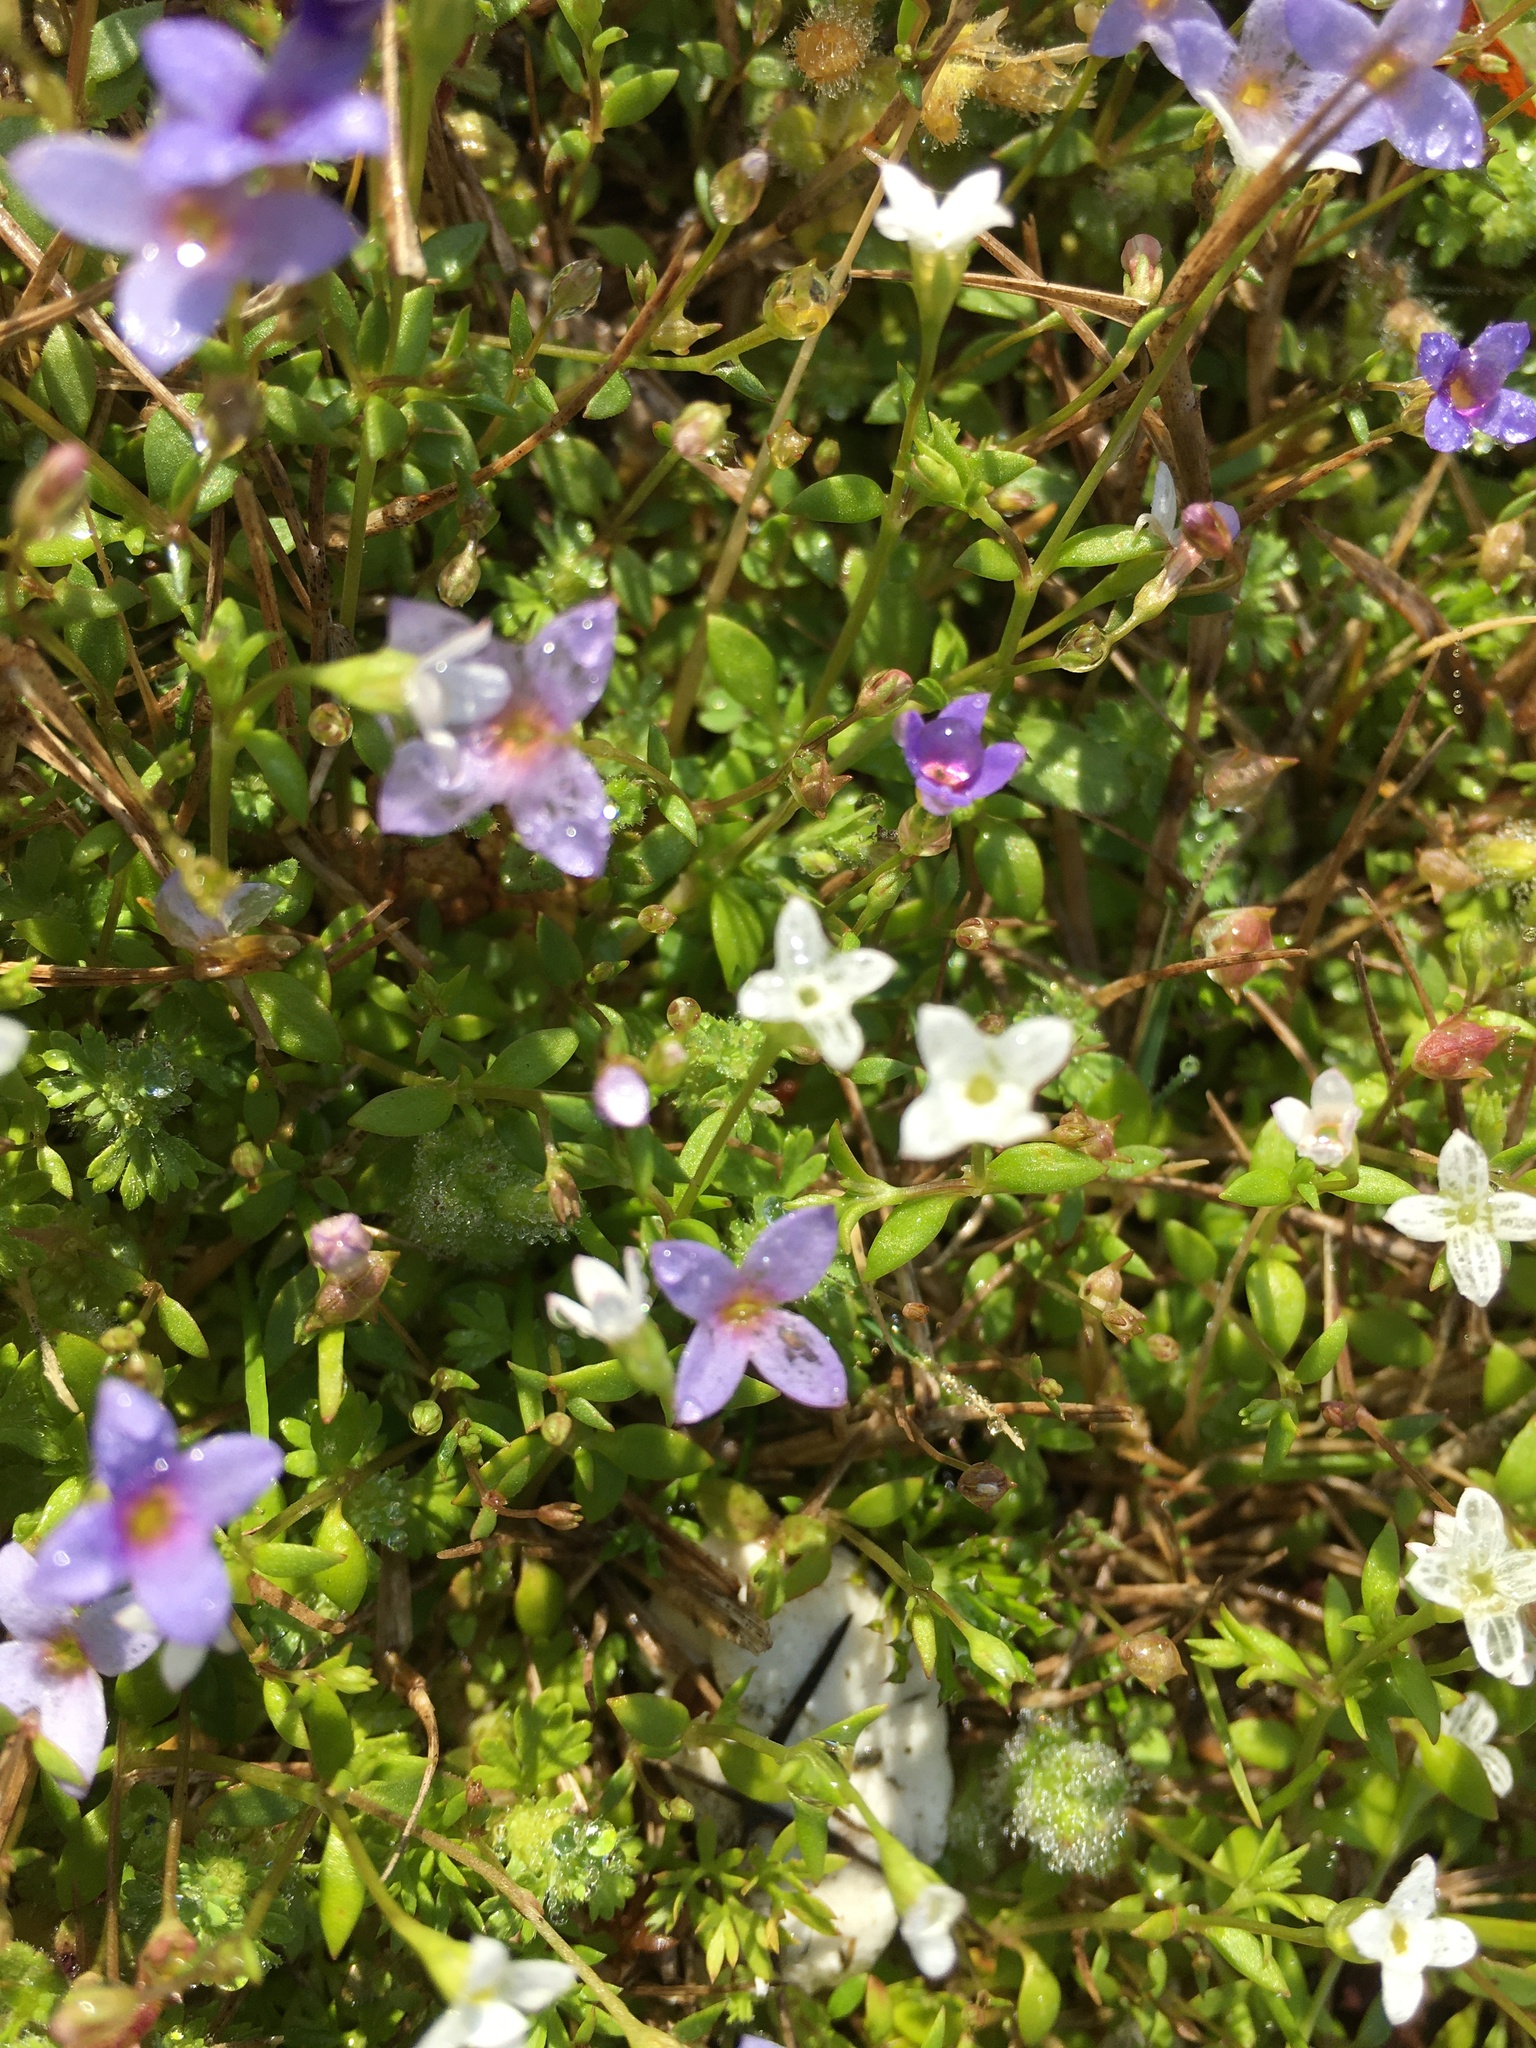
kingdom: Plantae
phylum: Tracheophyta
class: Magnoliopsida
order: Gentianales
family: Rubiaceae
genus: Houstonia
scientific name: Houstonia pusilla
